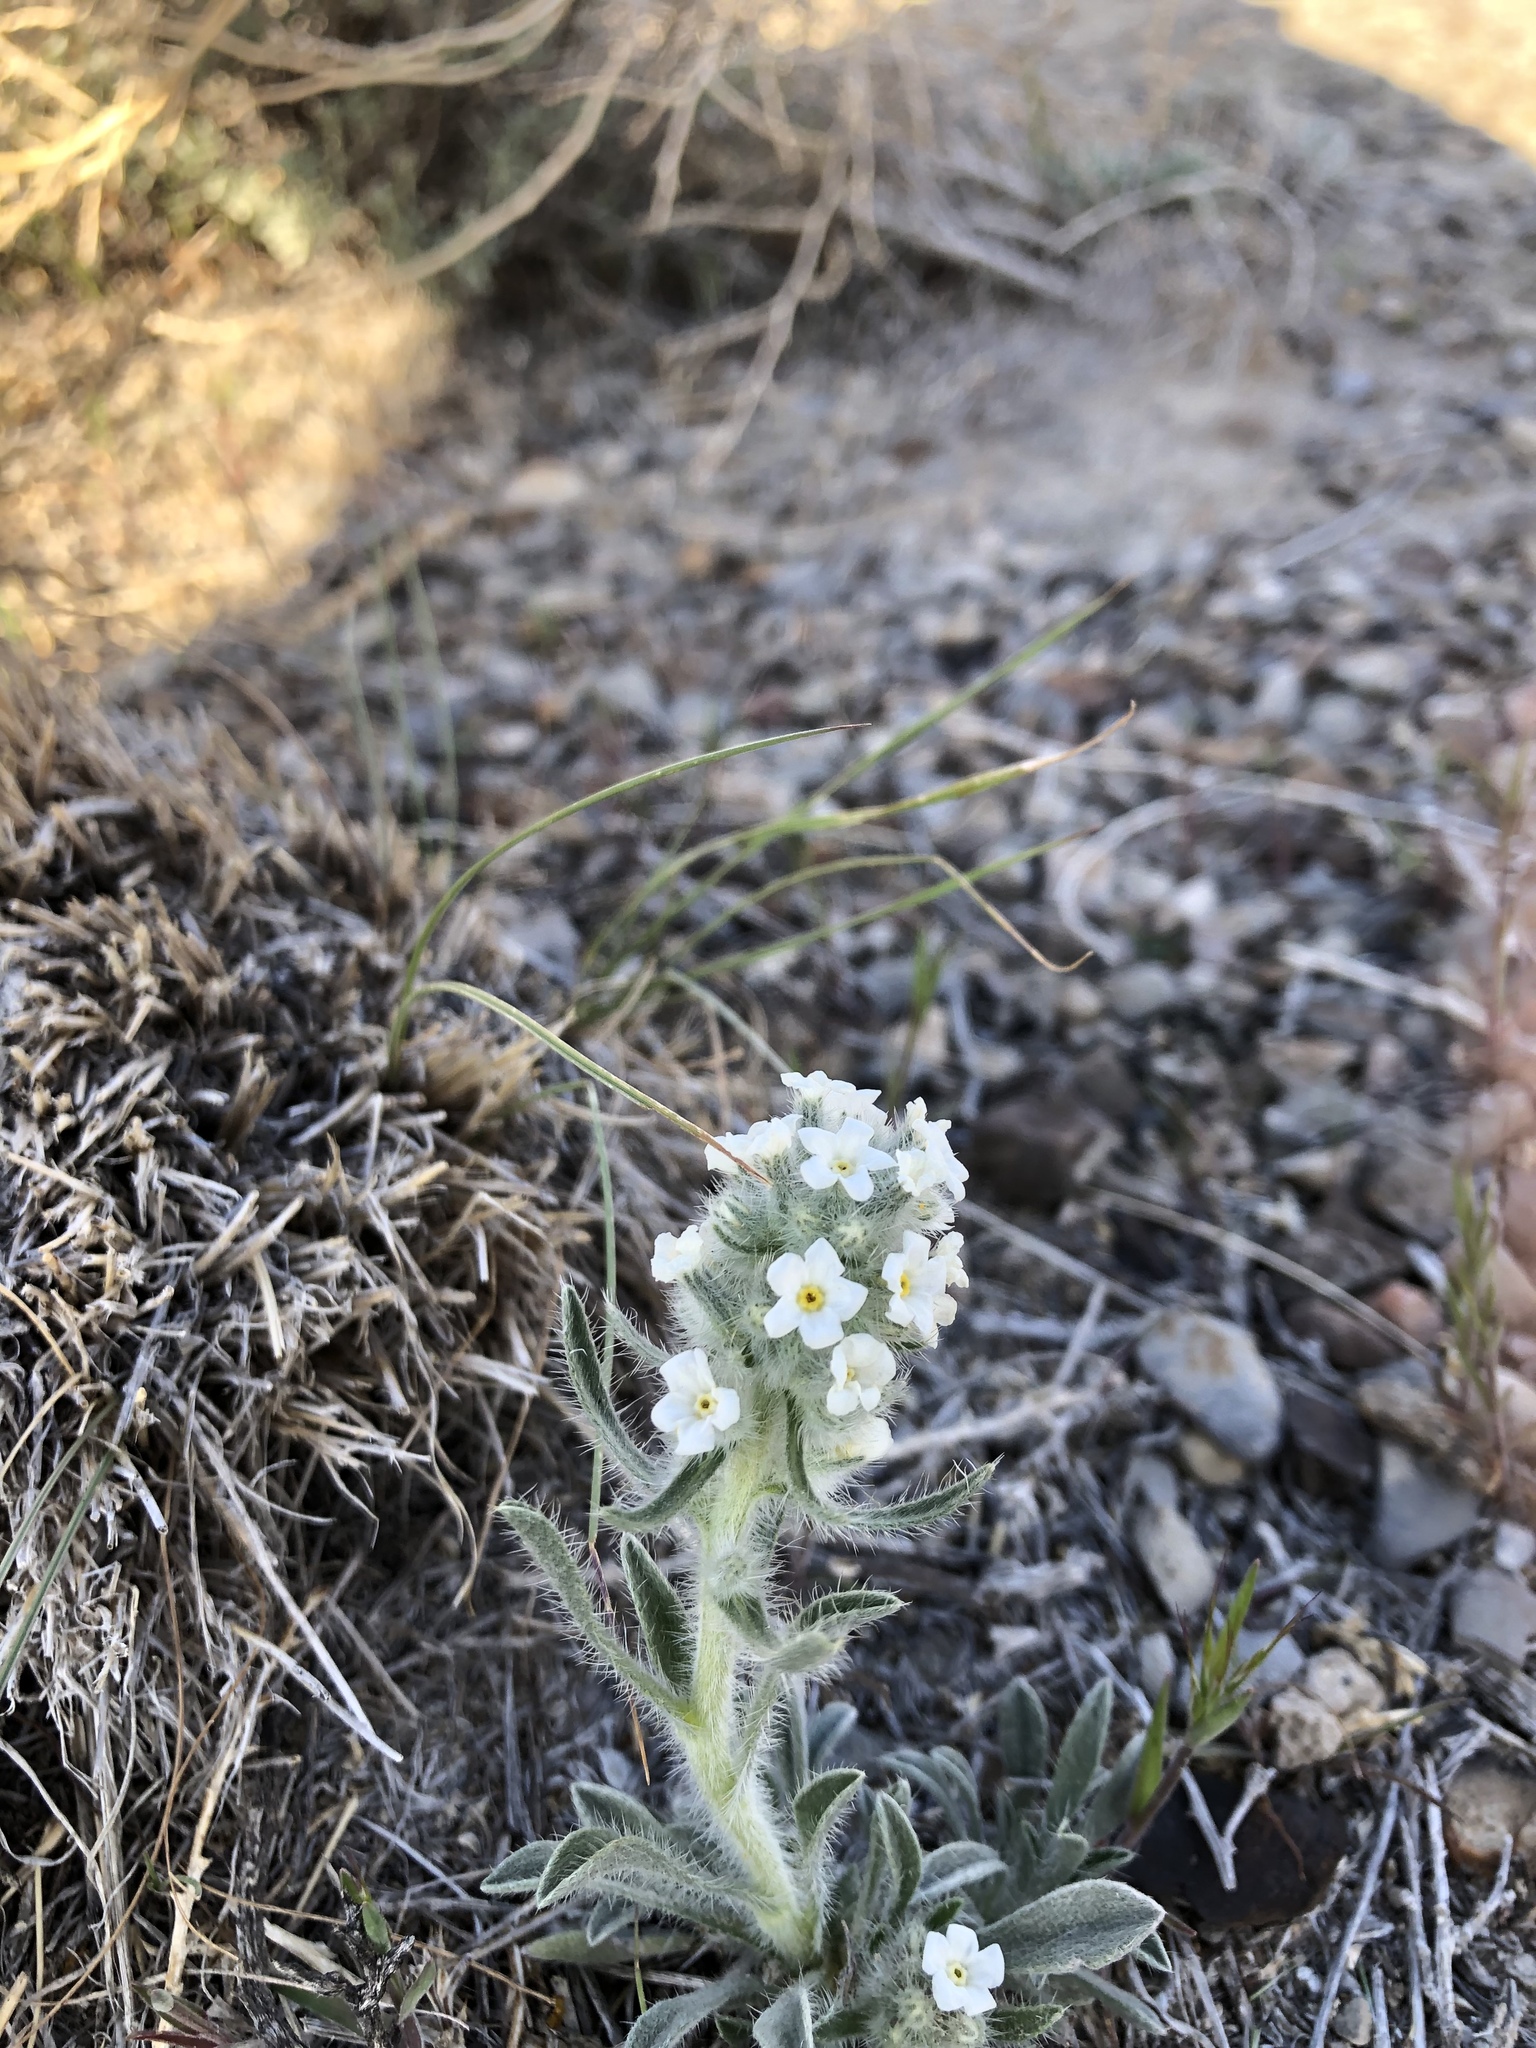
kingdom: Plantae
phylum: Tracheophyta
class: Magnoliopsida
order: Boraginales
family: Boraginaceae
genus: Oreocarya
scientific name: Oreocarya humilis
